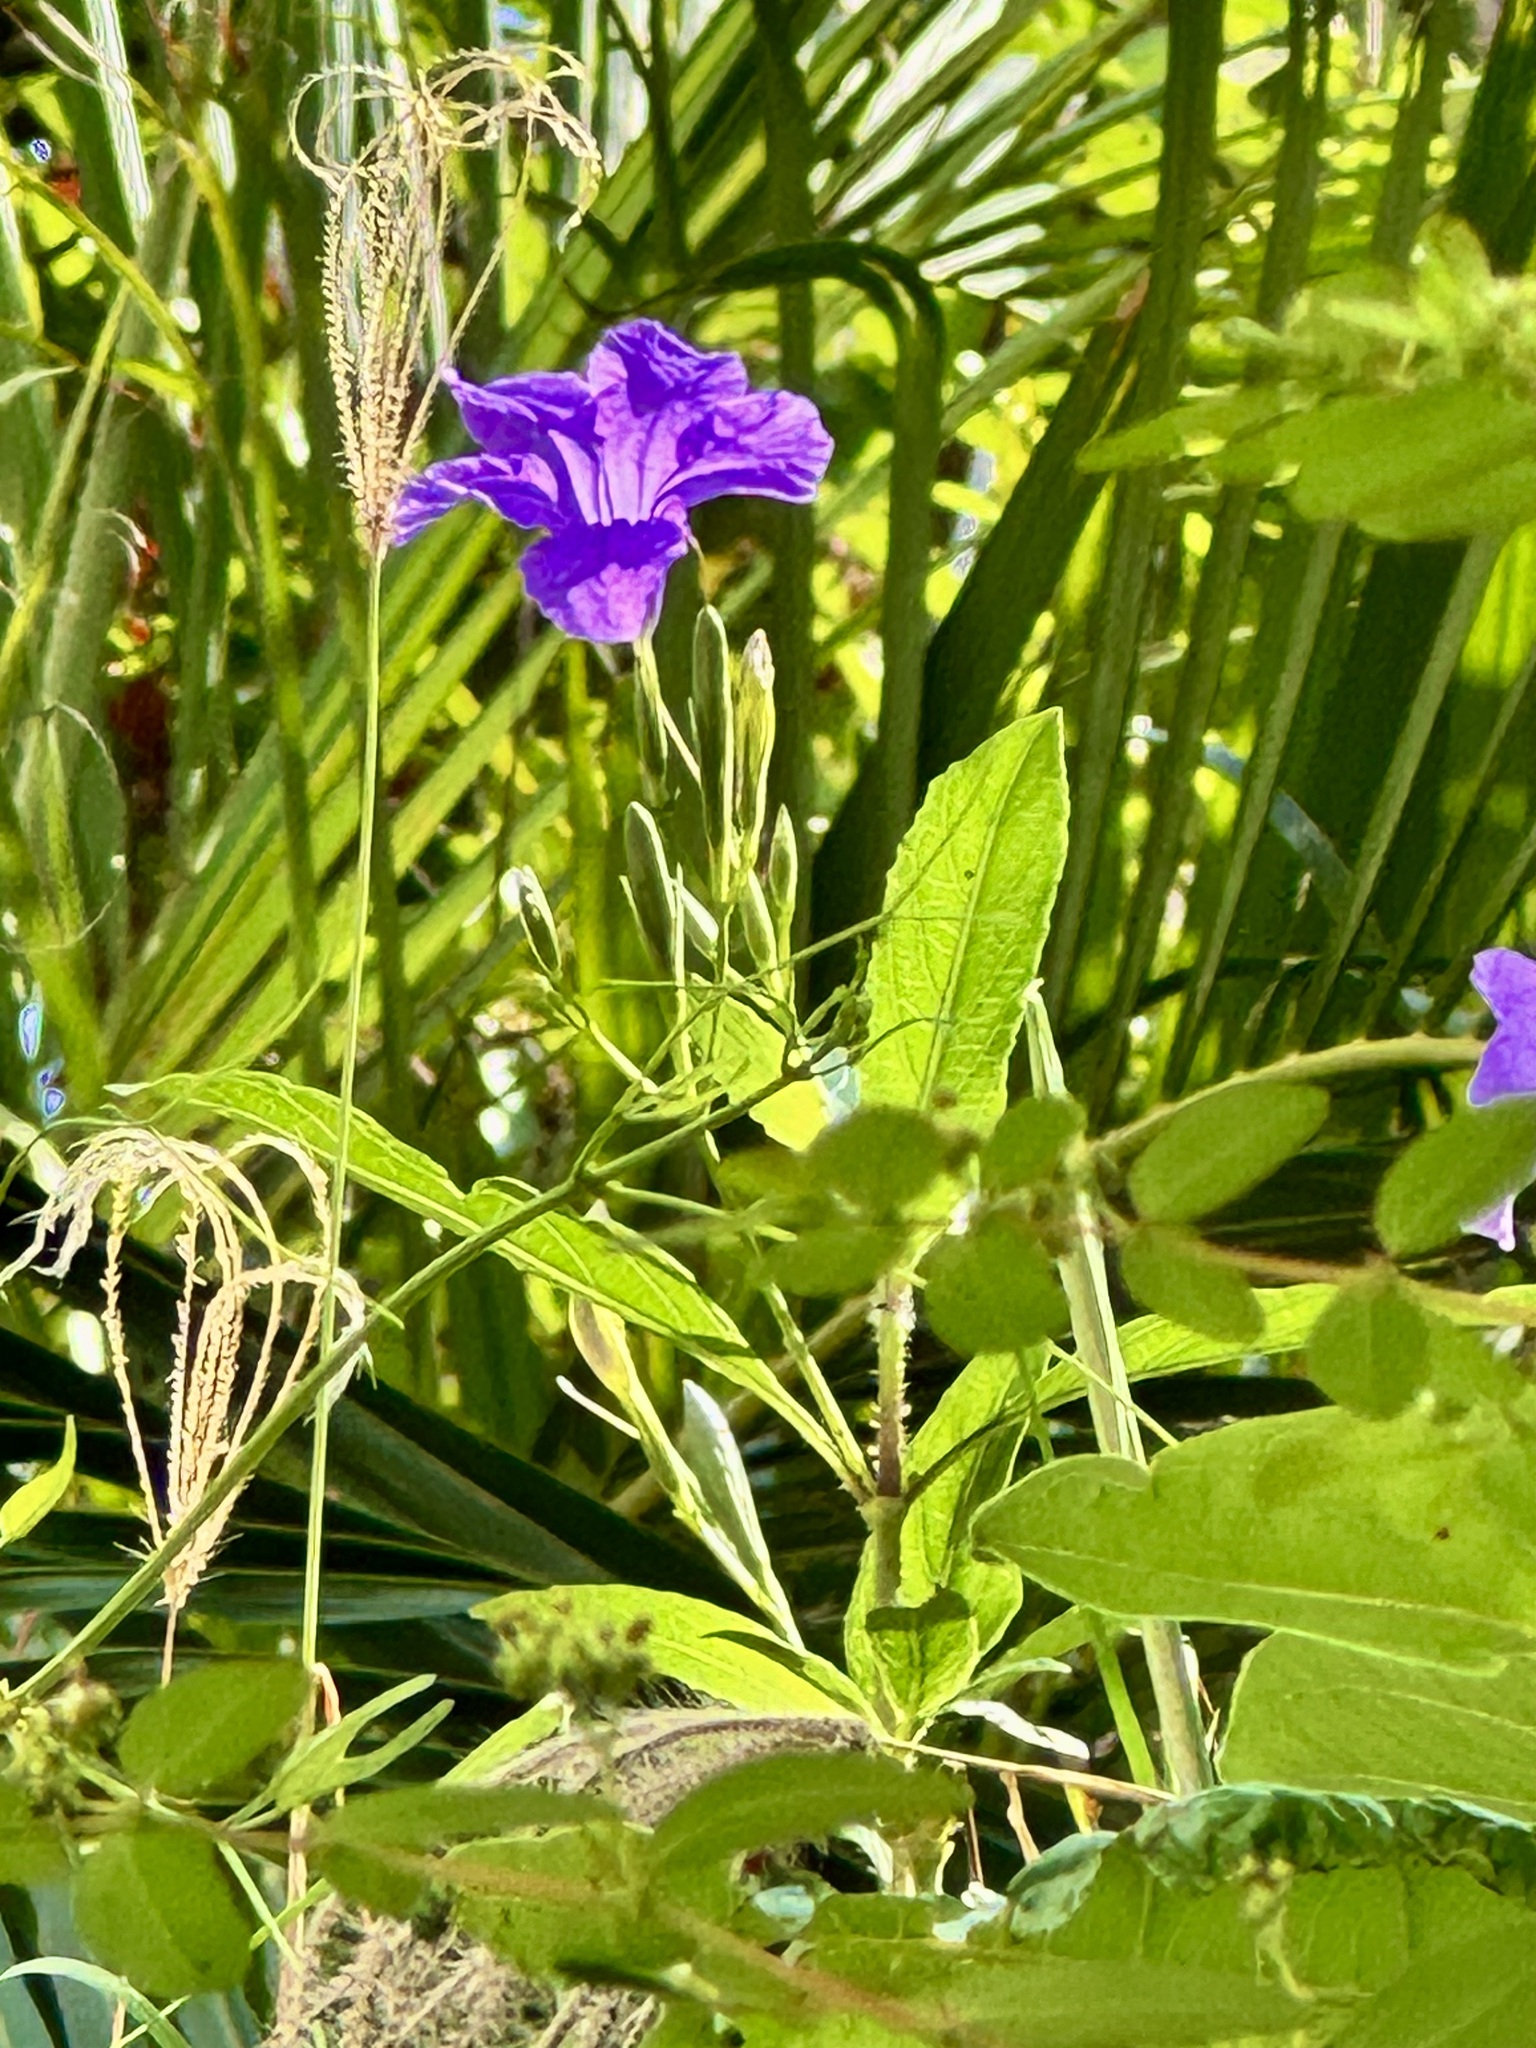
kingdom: Plantae
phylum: Tracheophyta
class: Magnoliopsida
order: Lamiales
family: Acanthaceae
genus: Ruellia
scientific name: Ruellia simplex
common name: Softseed wild petunia
